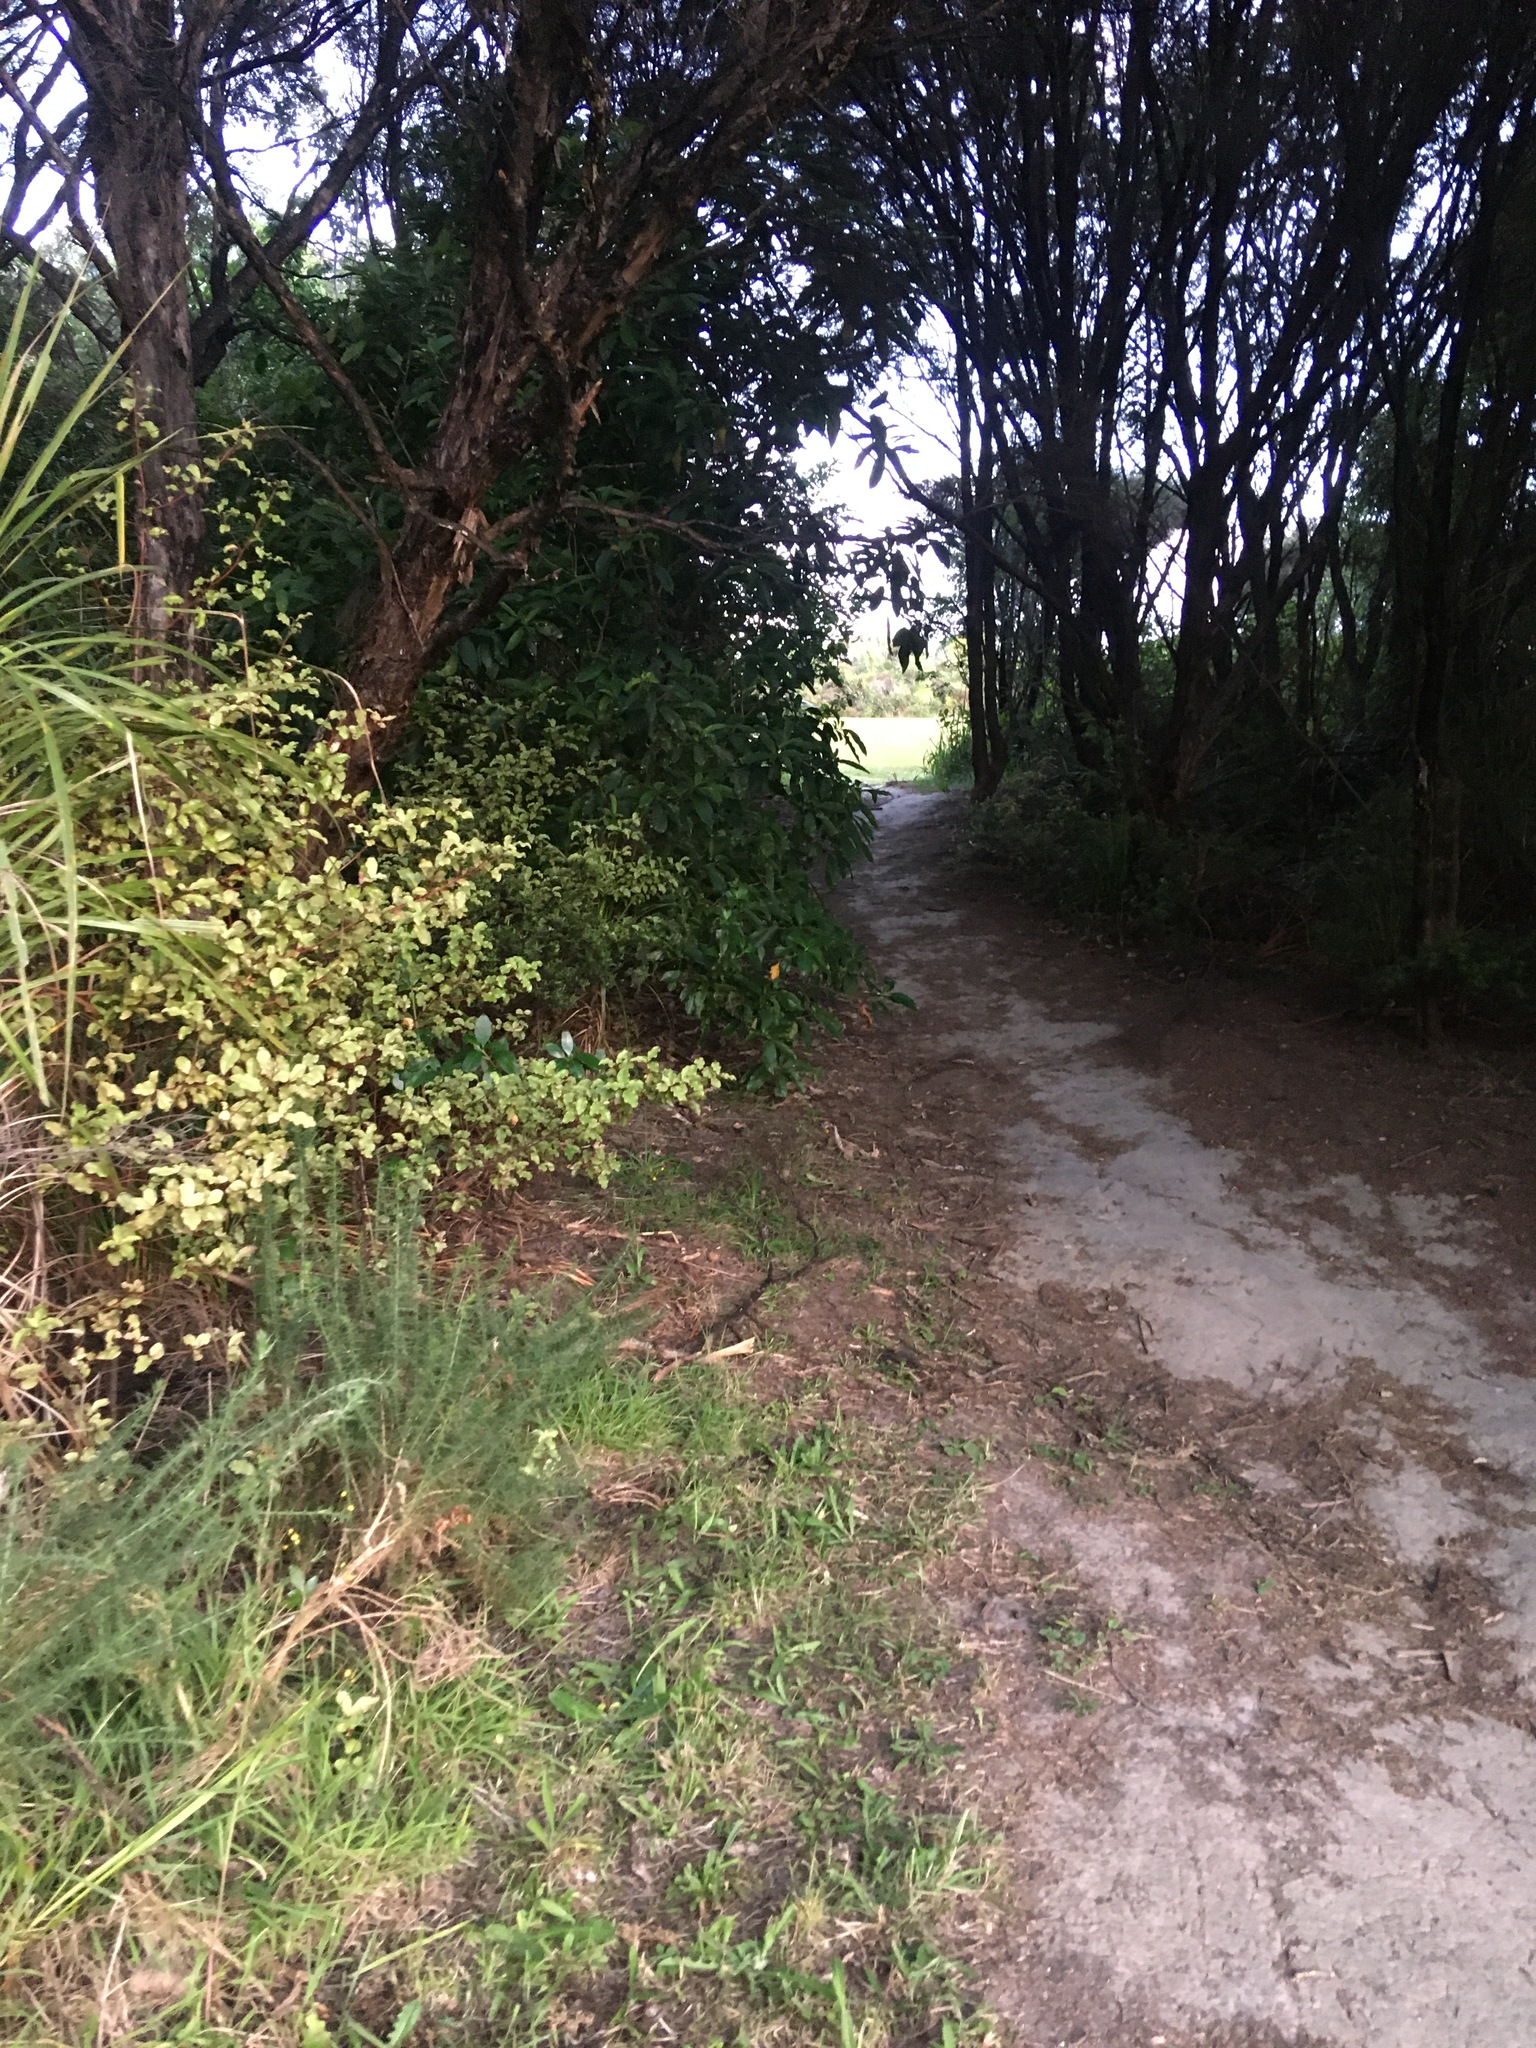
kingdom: Plantae
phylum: Tracheophyta
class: Magnoliopsida
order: Fabales
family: Fabaceae
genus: Ulex
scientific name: Ulex europaeus
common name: Common gorse
